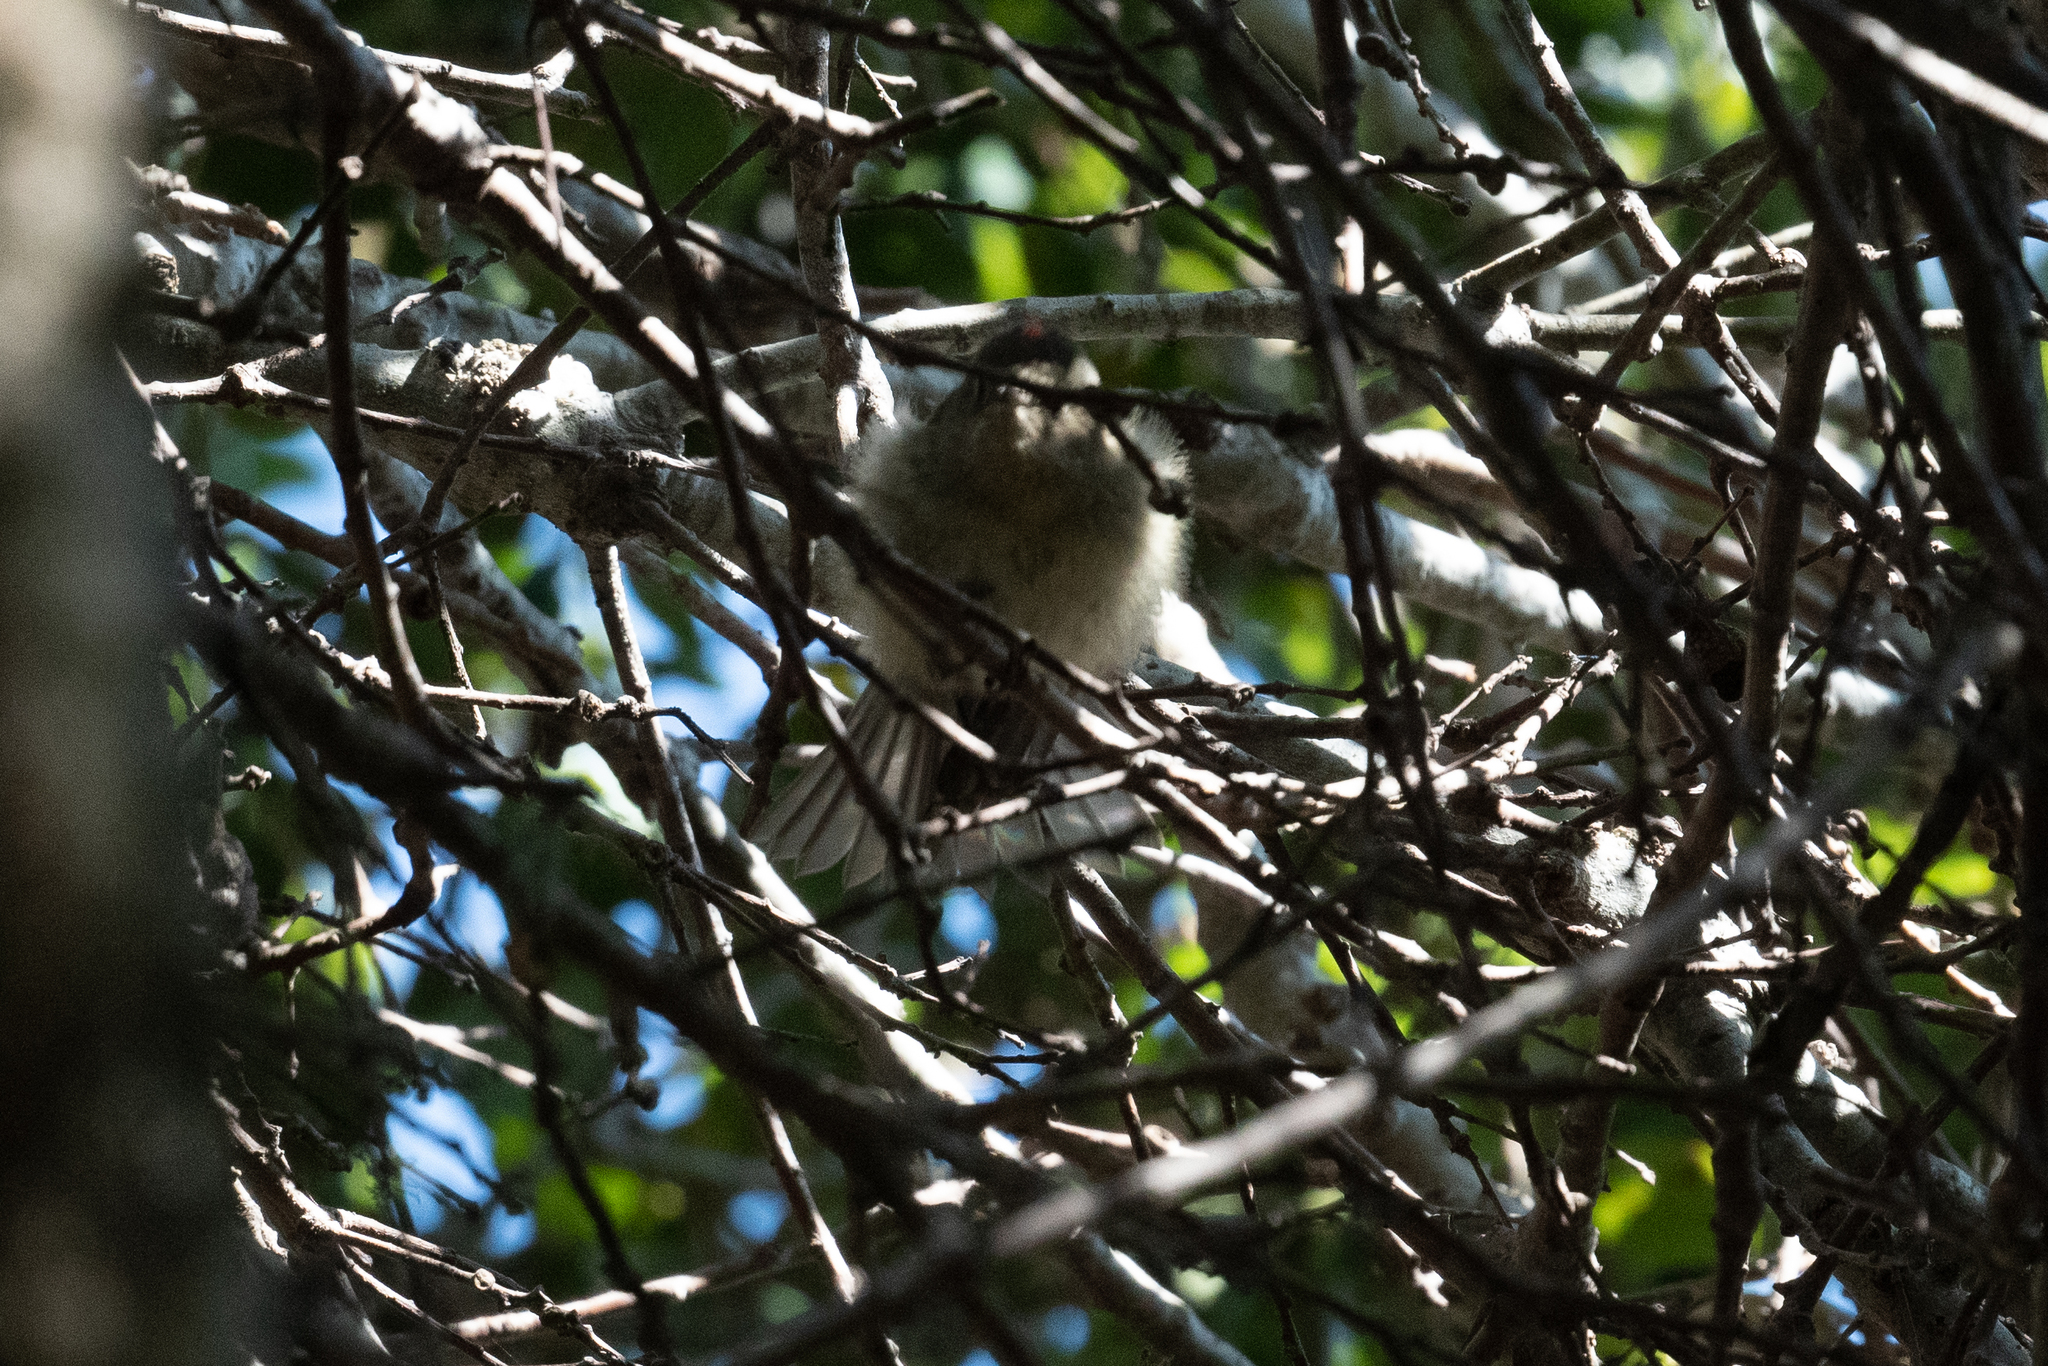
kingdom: Animalia
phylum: Chordata
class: Aves
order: Passeriformes
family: Regulidae
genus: Regulus
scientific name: Regulus calendula
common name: Ruby-crowned kinglet
